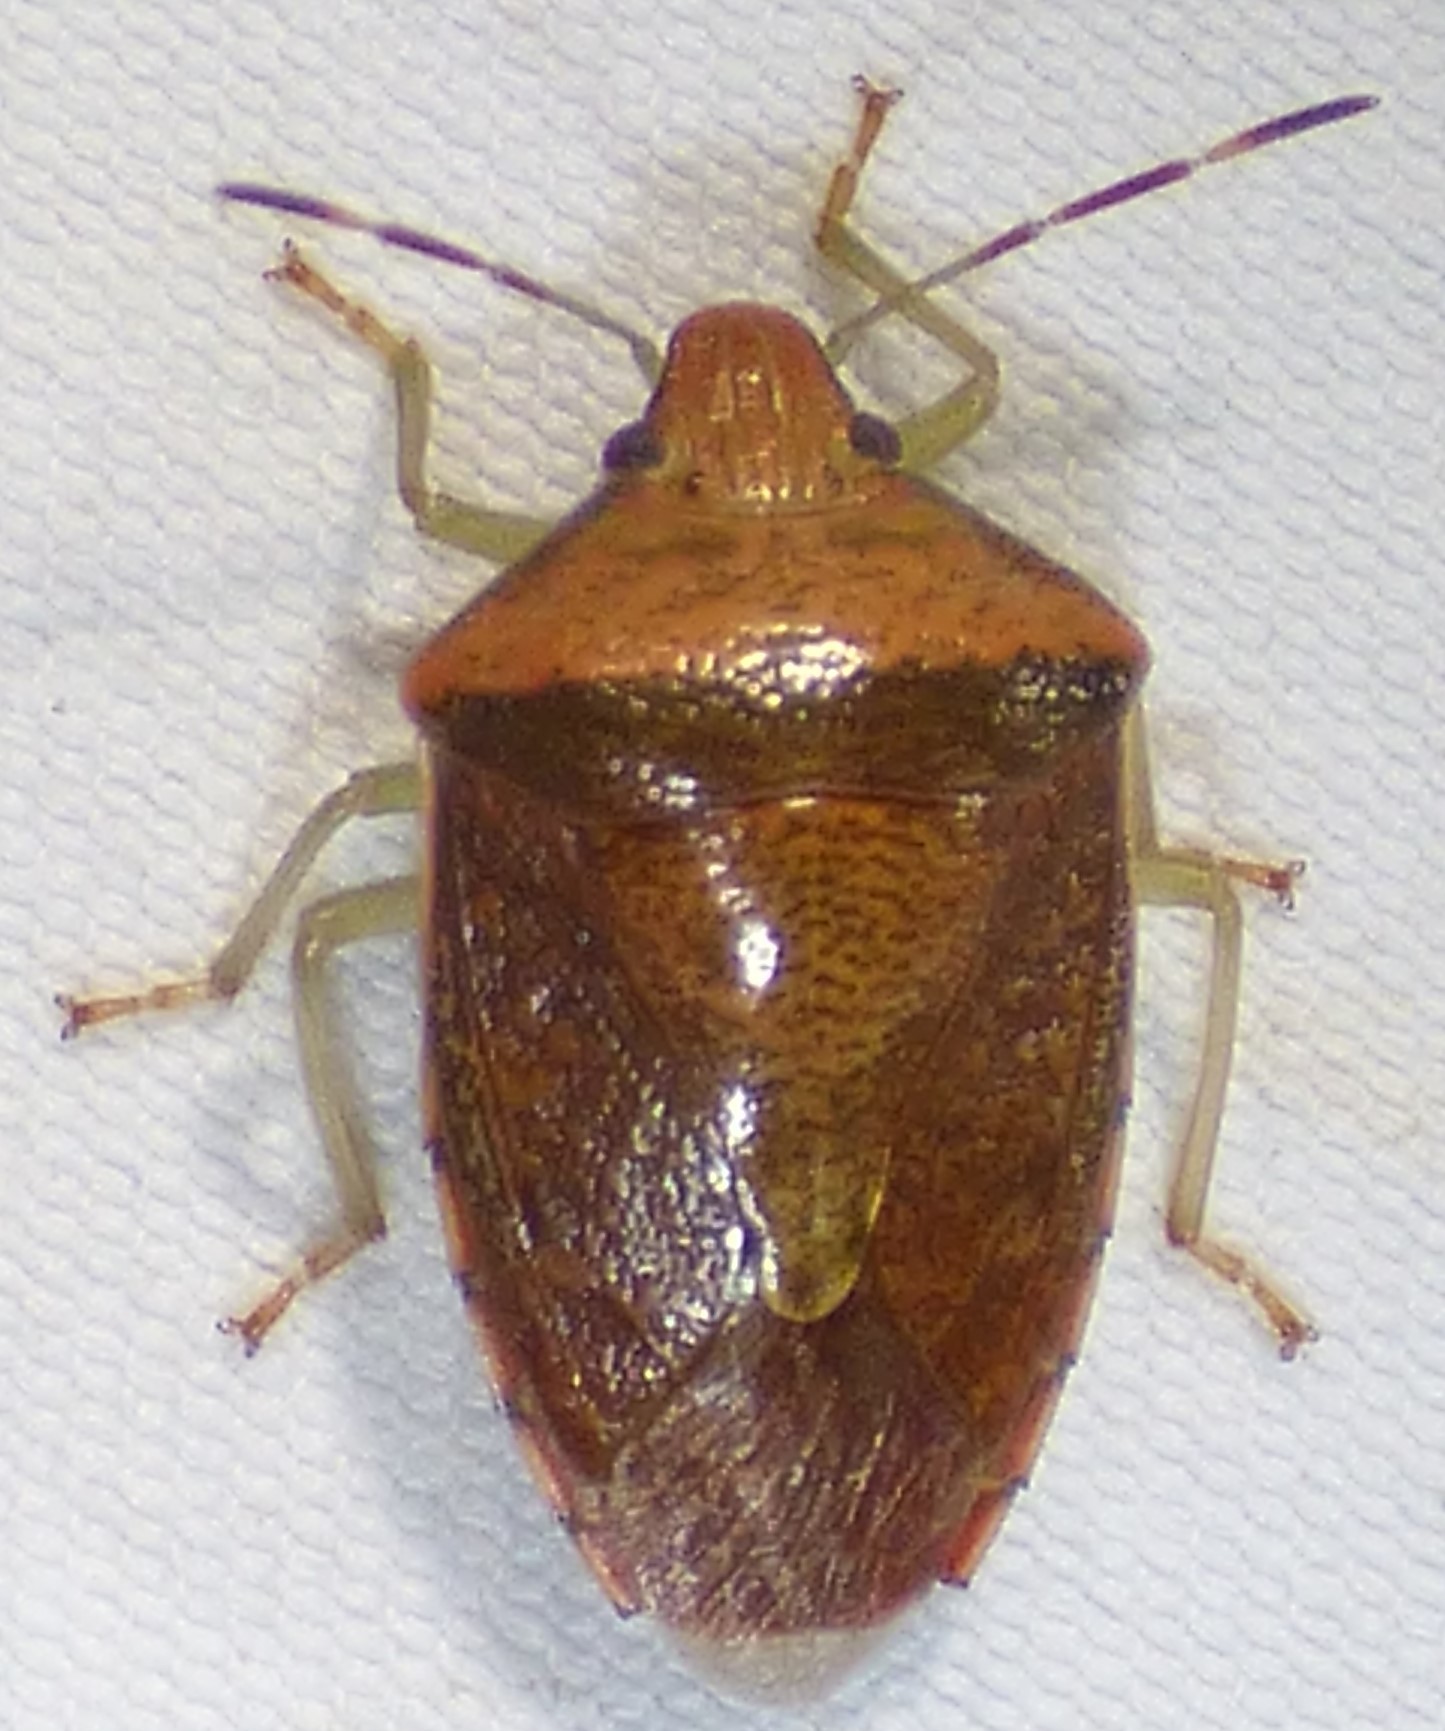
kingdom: Animalia
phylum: Arthropoda
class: Insecta
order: Hemiptera
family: Pentatomidae
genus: Banasa
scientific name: Banasa calva
